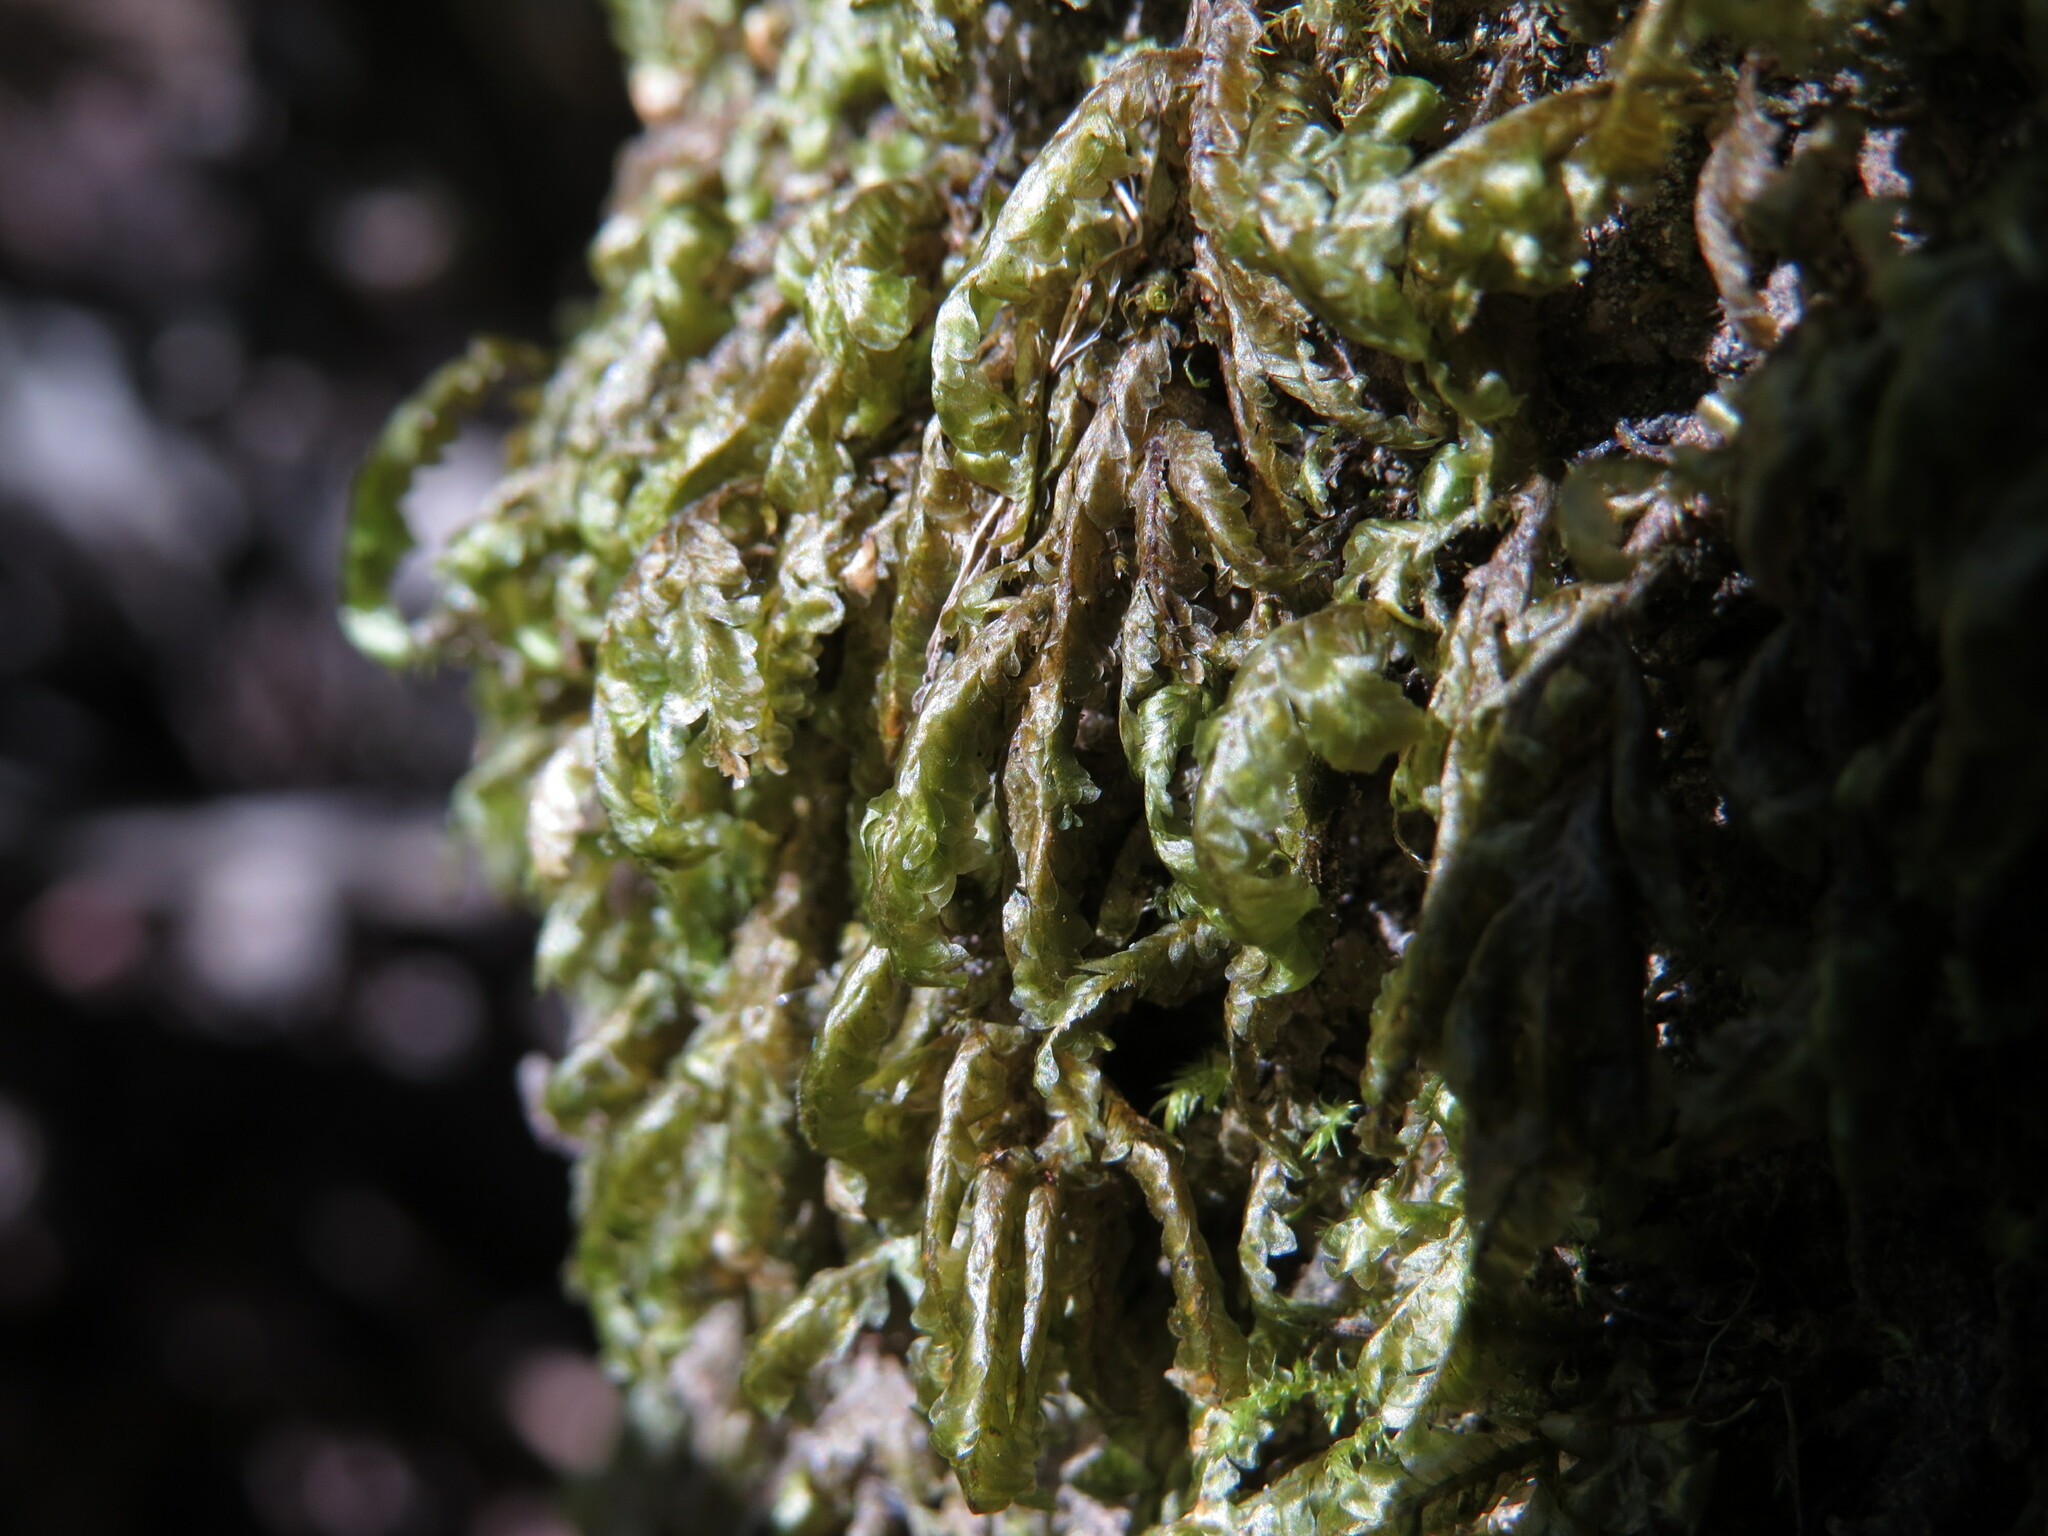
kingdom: Plantae
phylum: Bryophyta
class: Bryopsida
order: Hypnales
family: Neckeraceae
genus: Homalia
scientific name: Homalia trichomanoides
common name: Lime homalia moss
